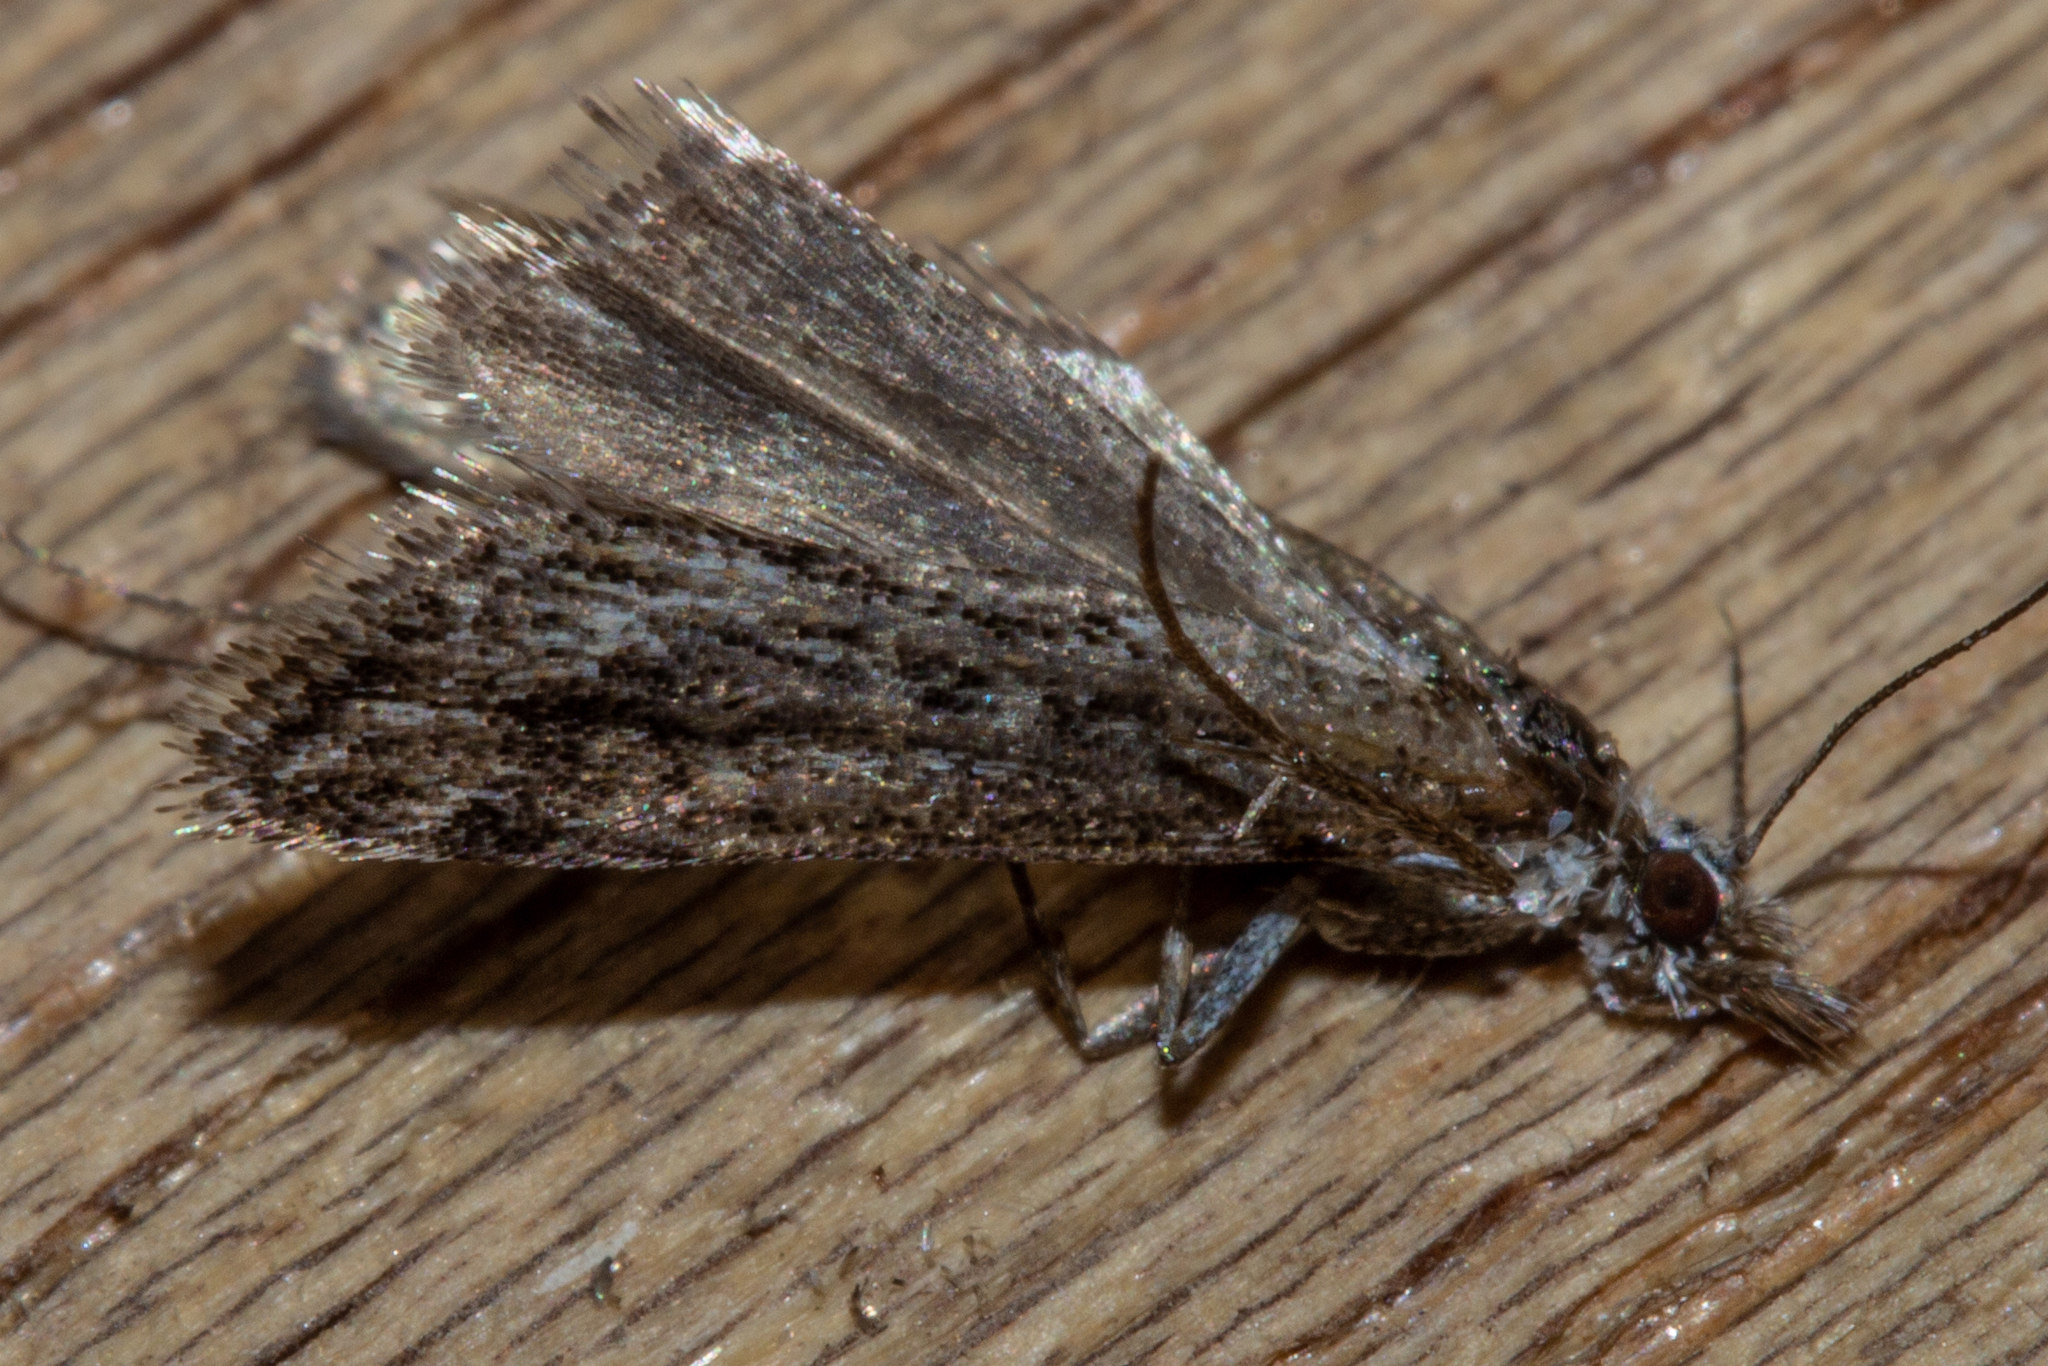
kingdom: Animalia
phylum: Arthropoda
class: Insecta
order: Lepidoptera
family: Crambidae
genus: Scoparia
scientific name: Scoparia exilis
